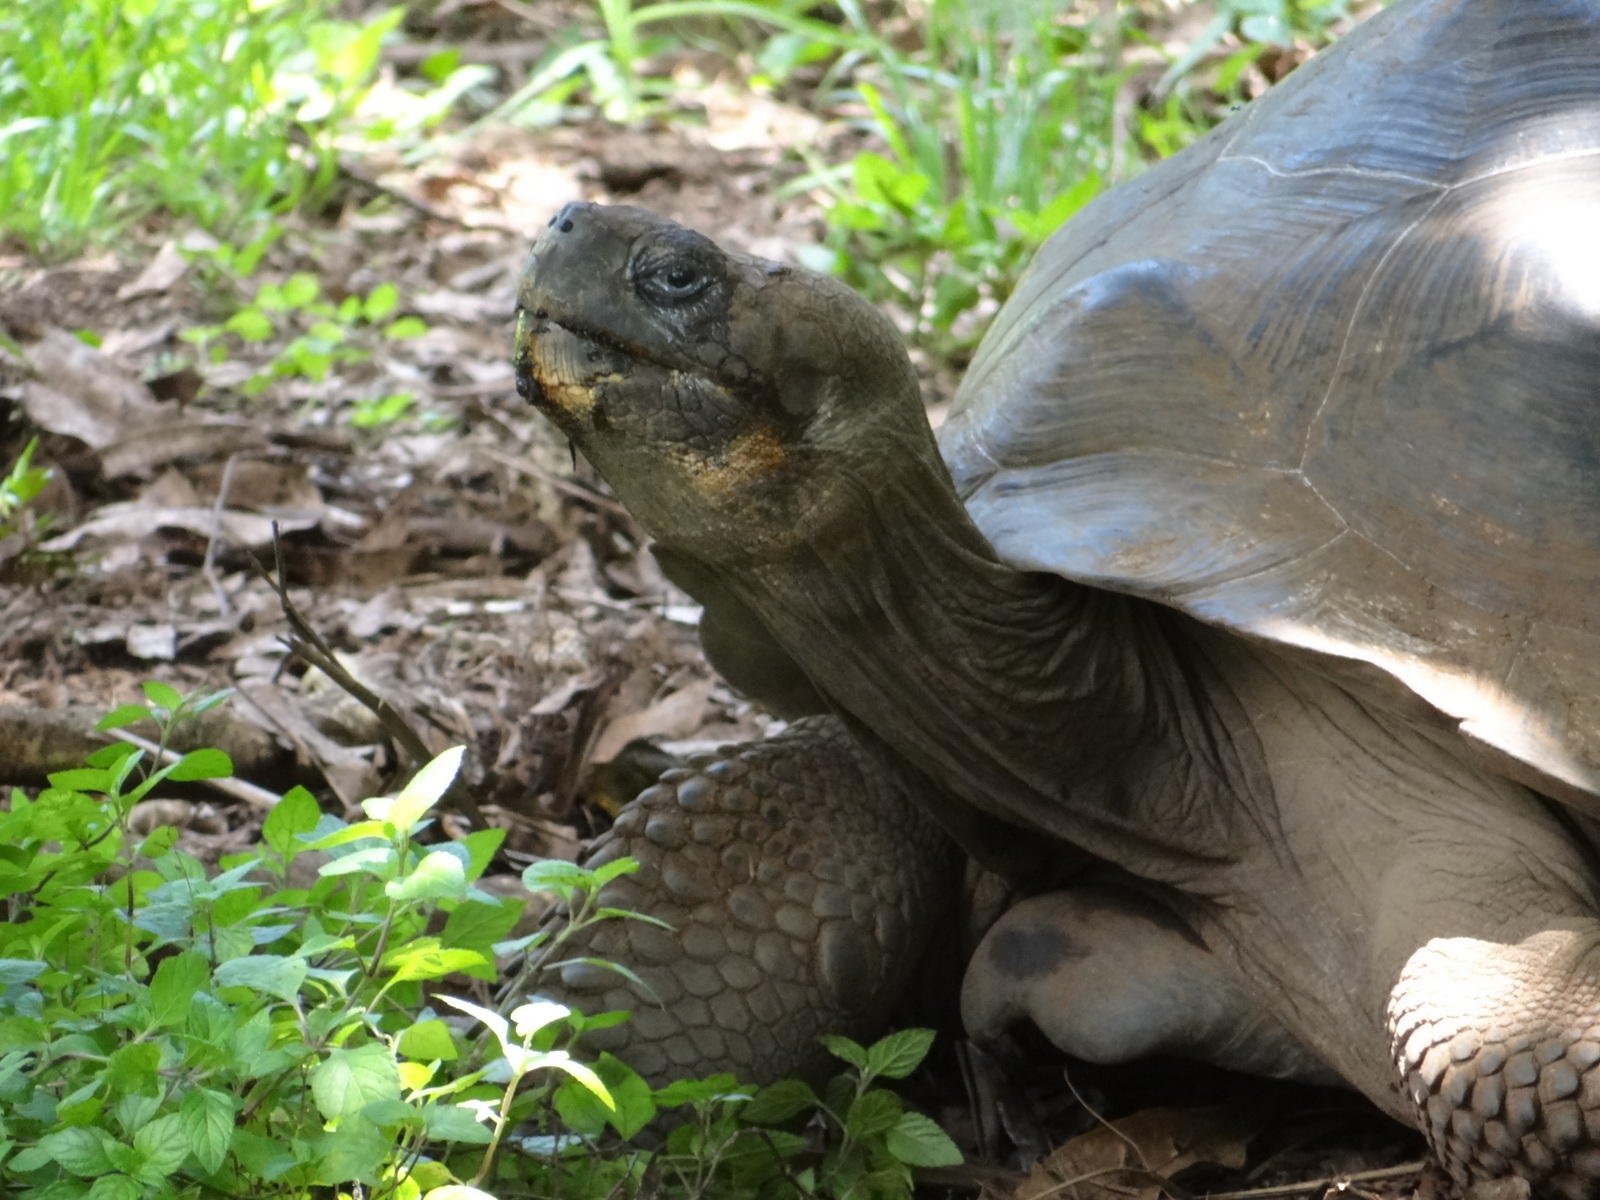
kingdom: Animalia
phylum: Chordata
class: Testudines
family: Testudinidae
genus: Chelonoidis
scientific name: Chelonoidis niger
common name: Charles island giant tortoise
